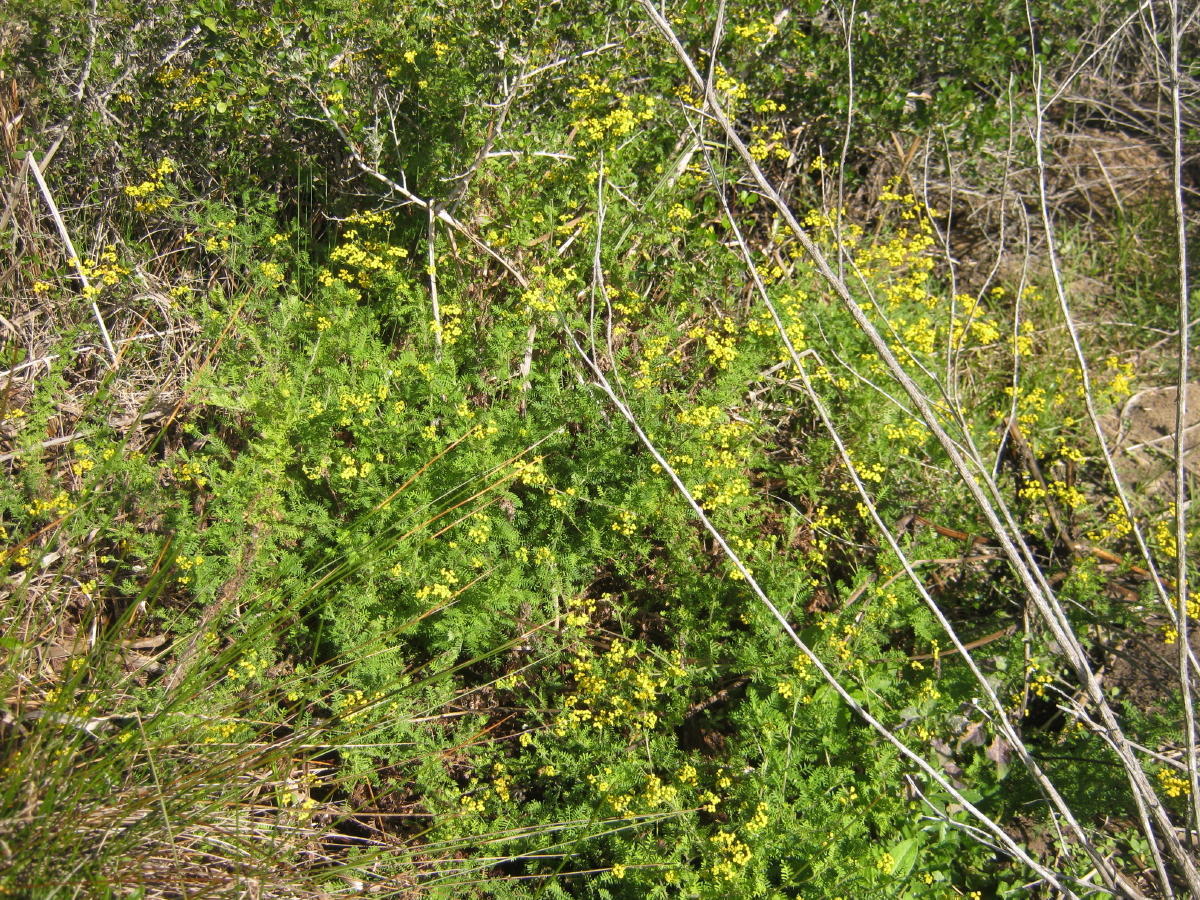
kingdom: Plantae
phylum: Tracheophyta
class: Magnoliopsida
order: Asterales
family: Asteraceae
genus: Hippia
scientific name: Hippia frutescens
